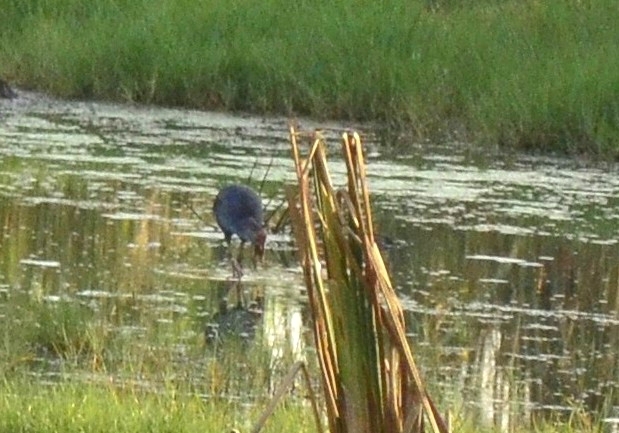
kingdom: Animalia
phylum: Chordata
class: Aves
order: Gruiformes
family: Rallidae
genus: Porphyrio
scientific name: Porphyrio porphyrio
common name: Purple swamphen
